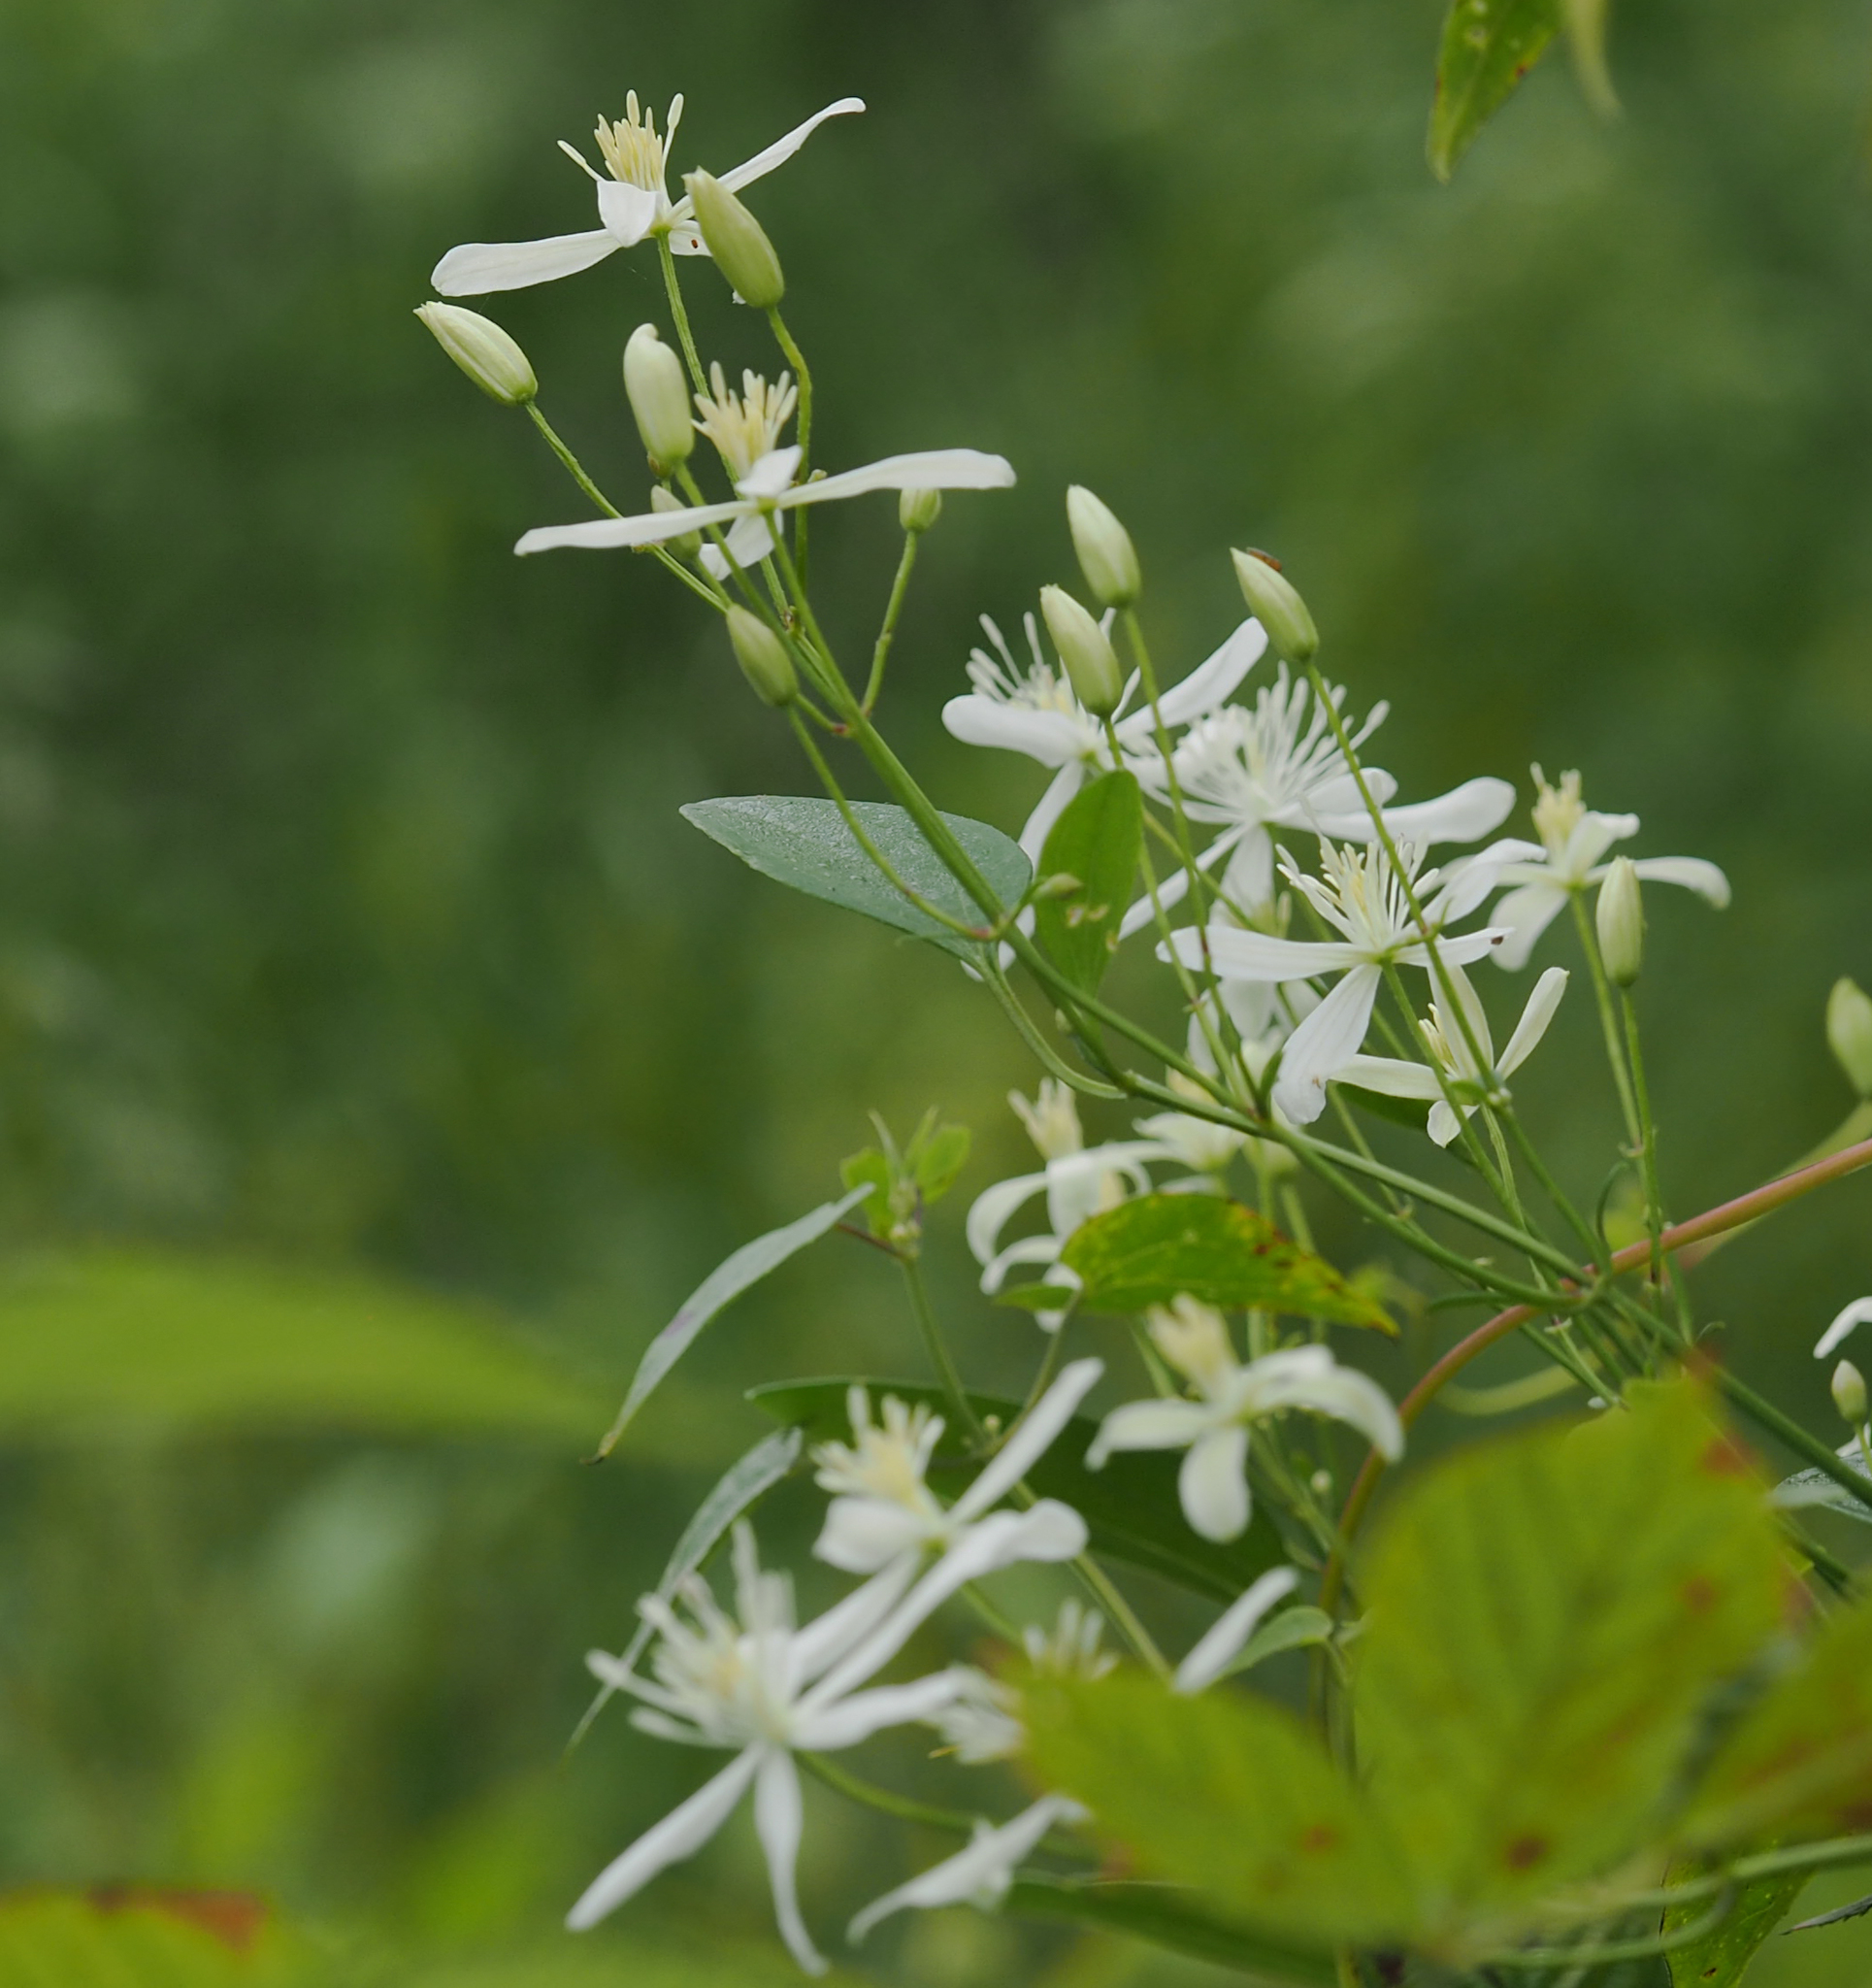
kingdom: Plantae
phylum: Tracheophyta
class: Magnoliopsida
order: Ranunculales
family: Ranunculaceae
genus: Clematis
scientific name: Clematis terniflora
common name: Sweet autumn clematis
